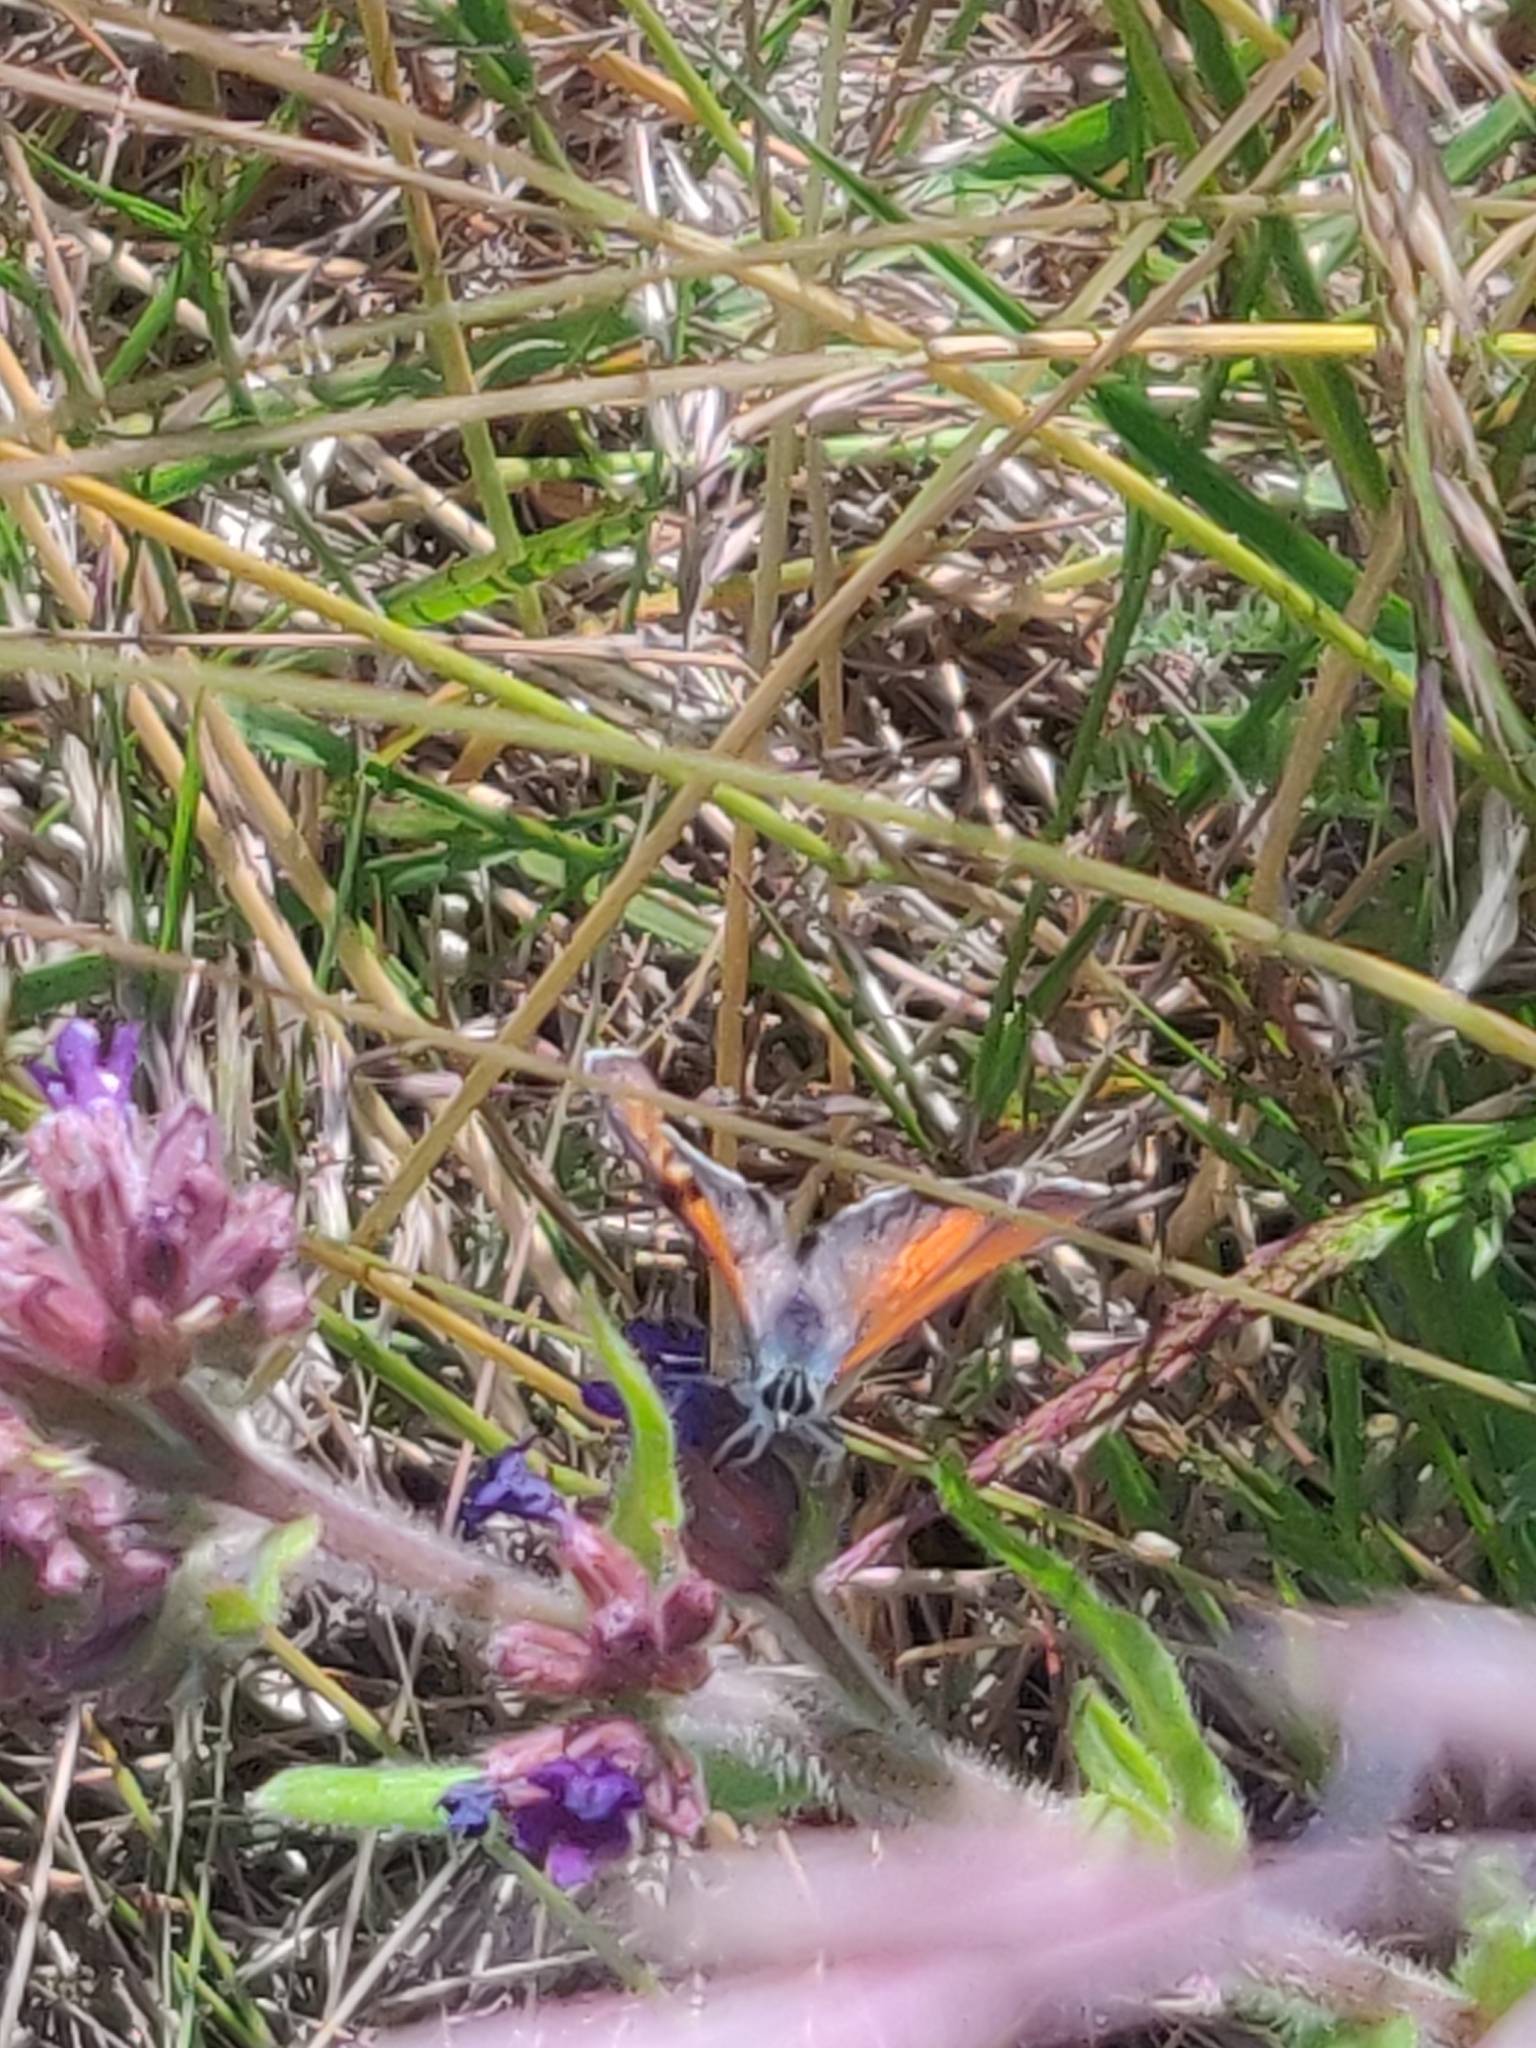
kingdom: Animalia
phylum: Arthropoda
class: Insecta
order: Lepidoptera
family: Lycaenidae
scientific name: Lycaenidae
